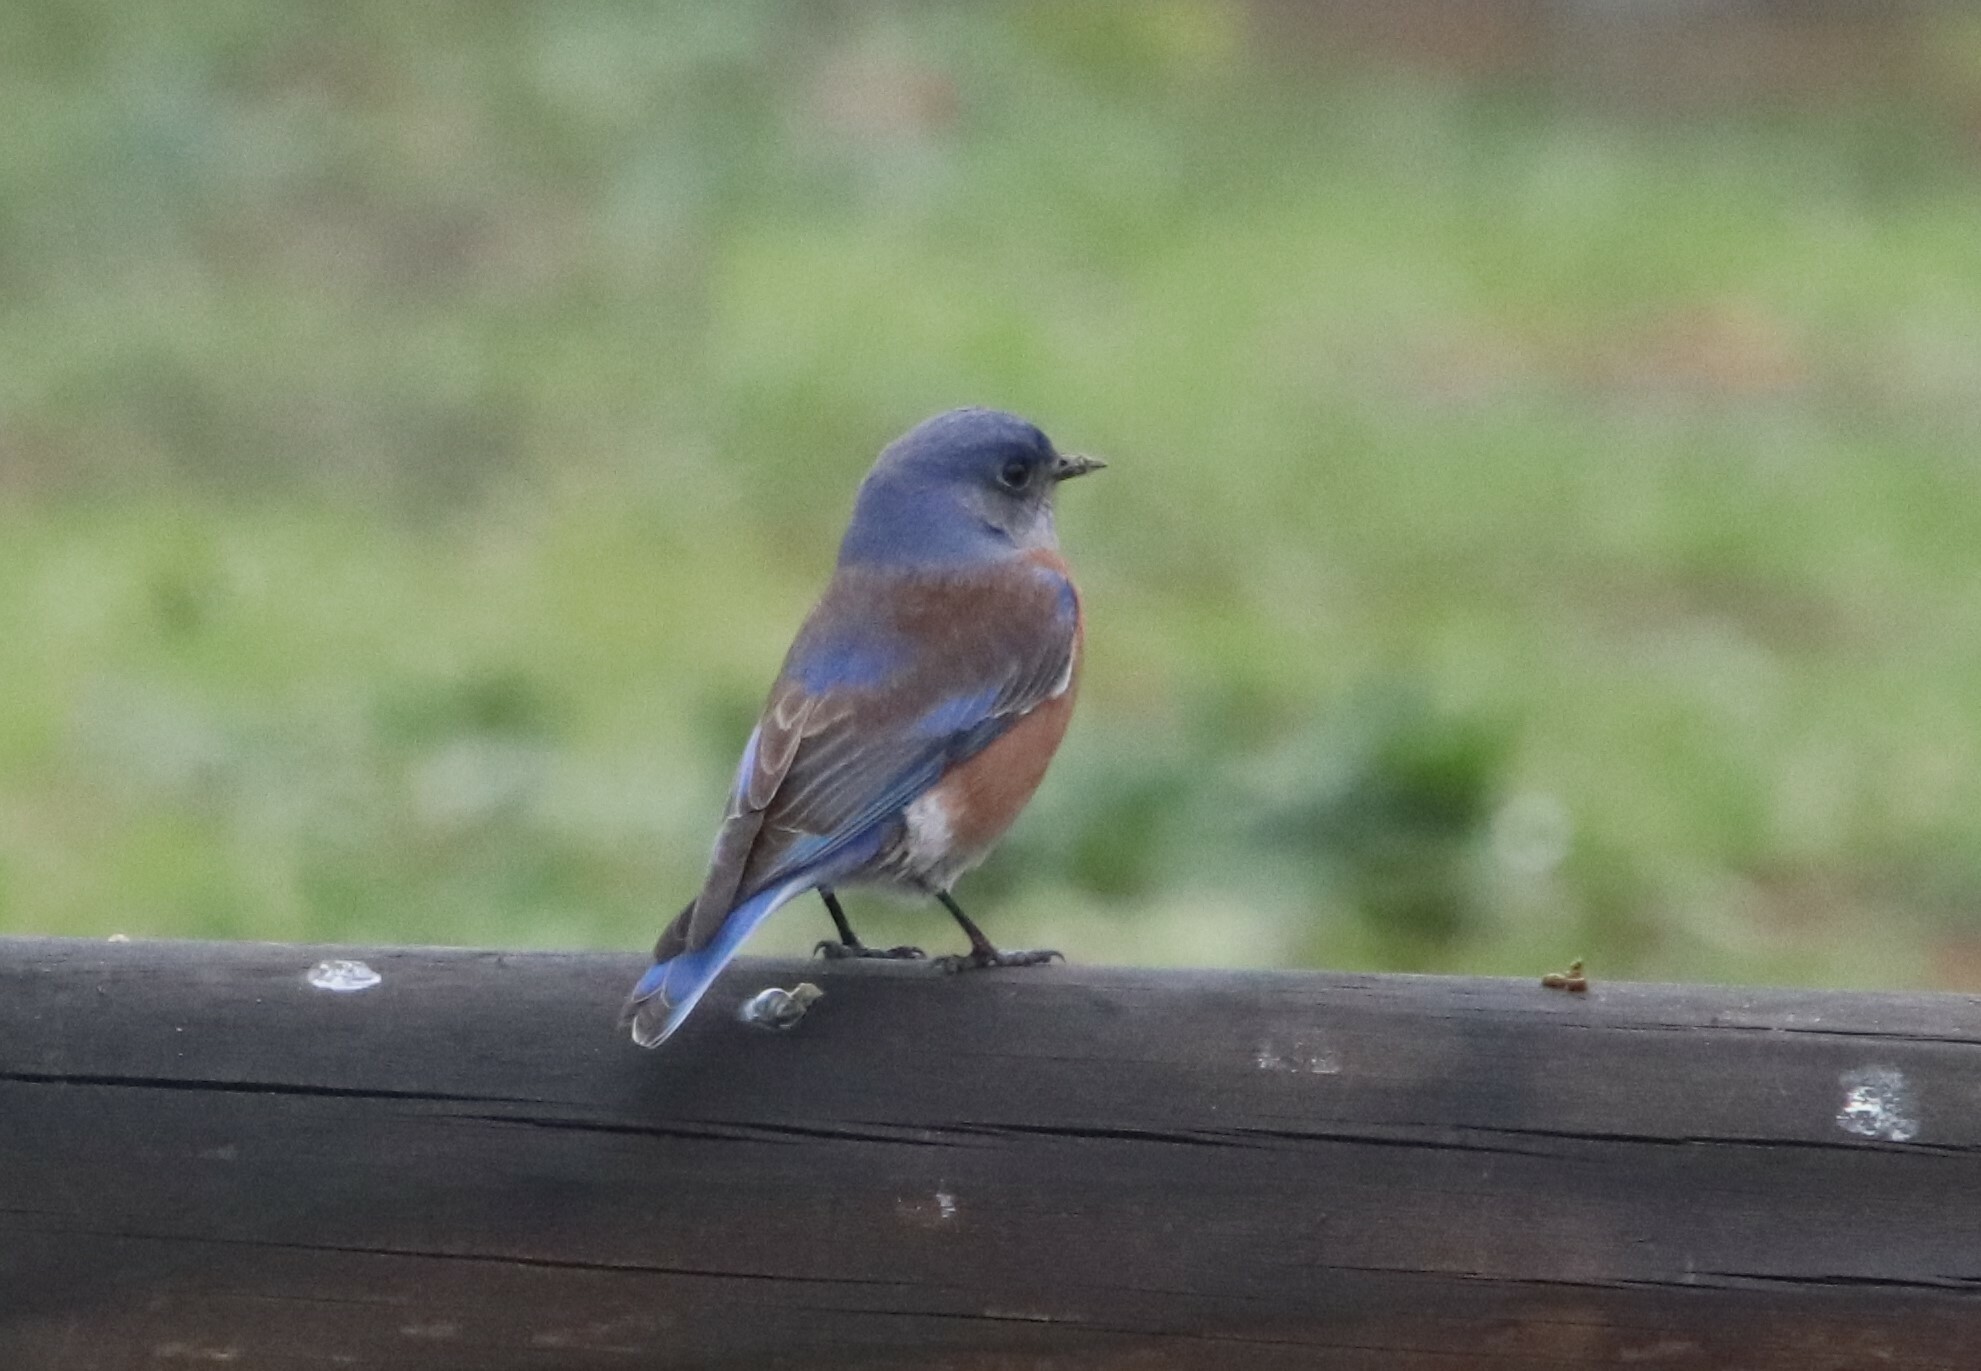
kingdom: Animalia
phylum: Chordata
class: Aves
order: Passeriformes
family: Turdidae
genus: Sialia
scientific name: Sialia mexicana
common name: Western bluebird
